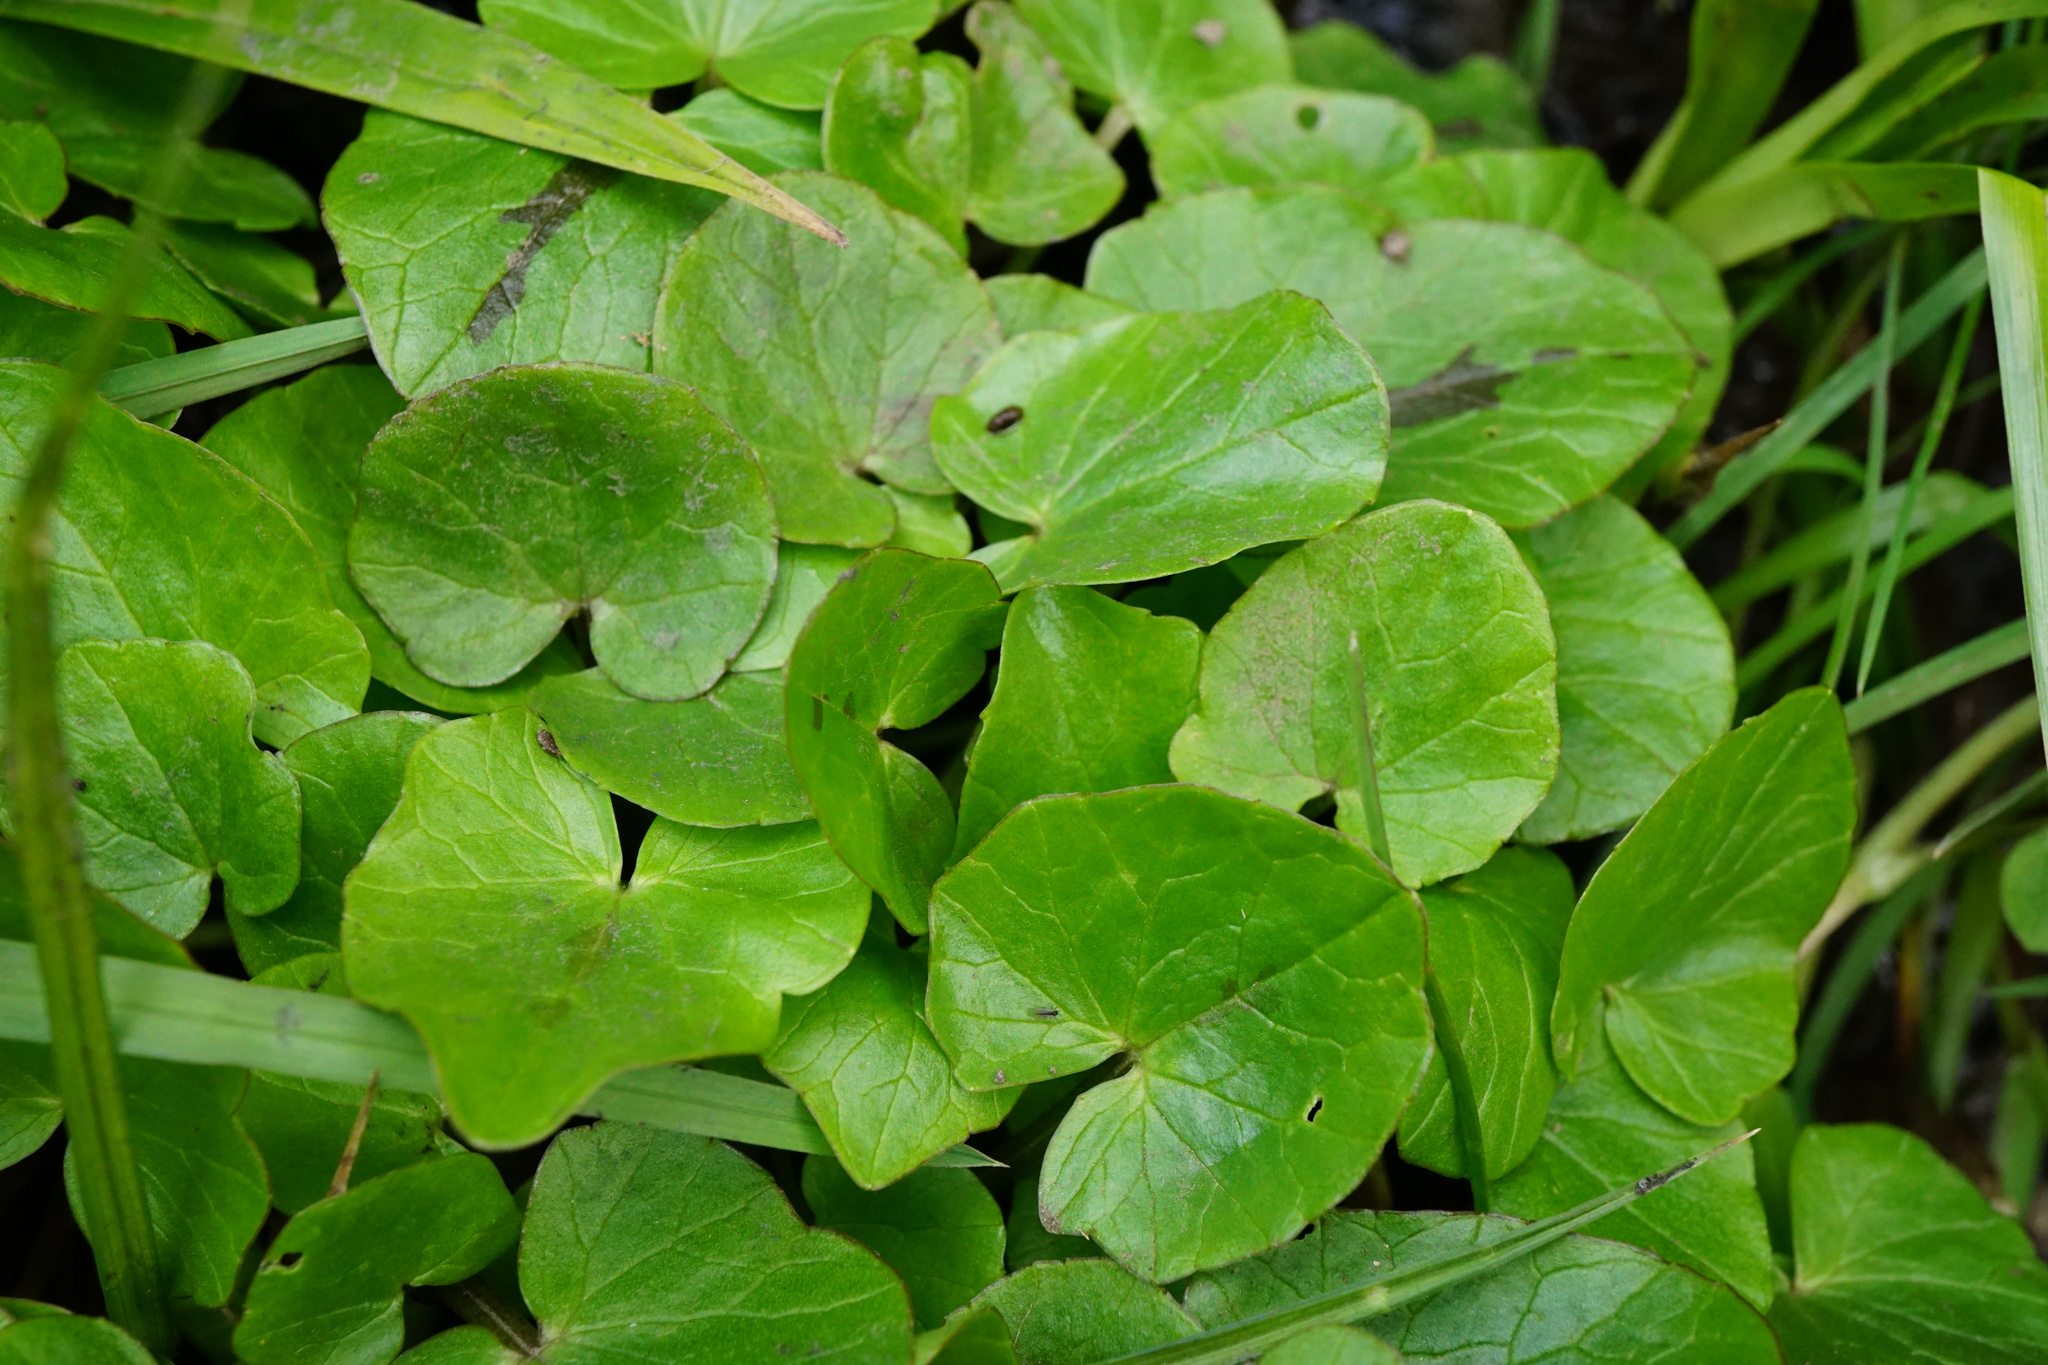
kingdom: Plantae
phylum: Tracheophyta
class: Magnoliopsida
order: Ranunculales
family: Ranunculaceae
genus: Ficaria
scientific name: Ficaria verna
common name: Lesser celandine
